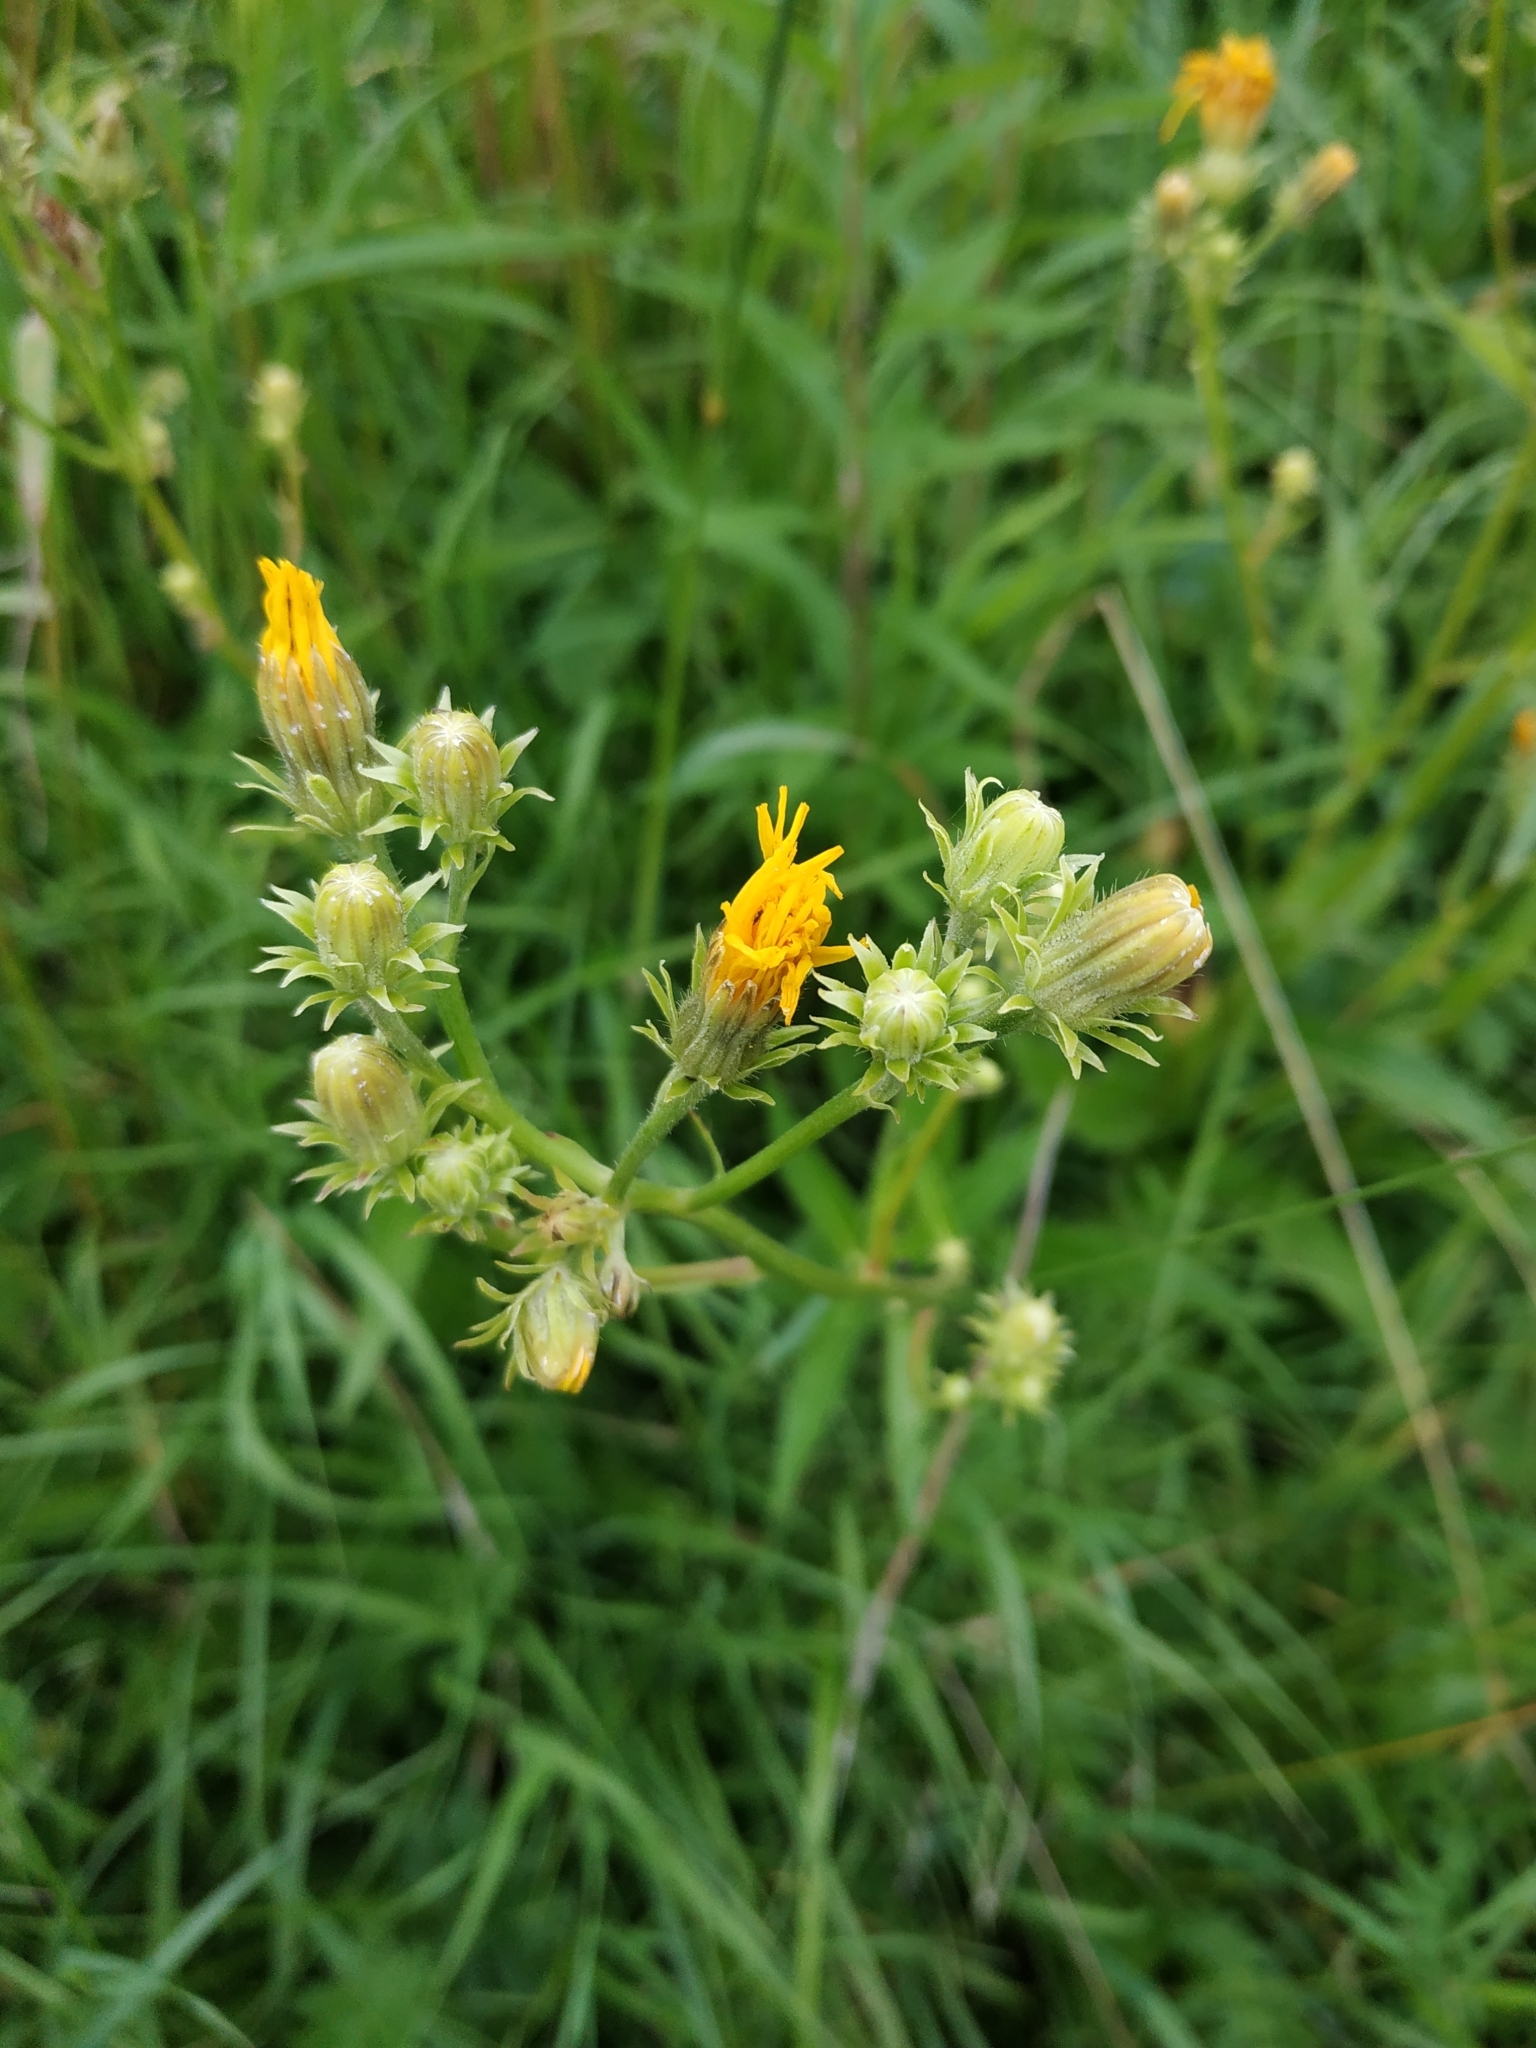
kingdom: Plantae
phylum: Tracheophyta
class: Magnoliopsida
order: Asterales
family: Asteraceae
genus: Picris
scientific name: Picris hieracioides
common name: Hawkweed oxtongue
